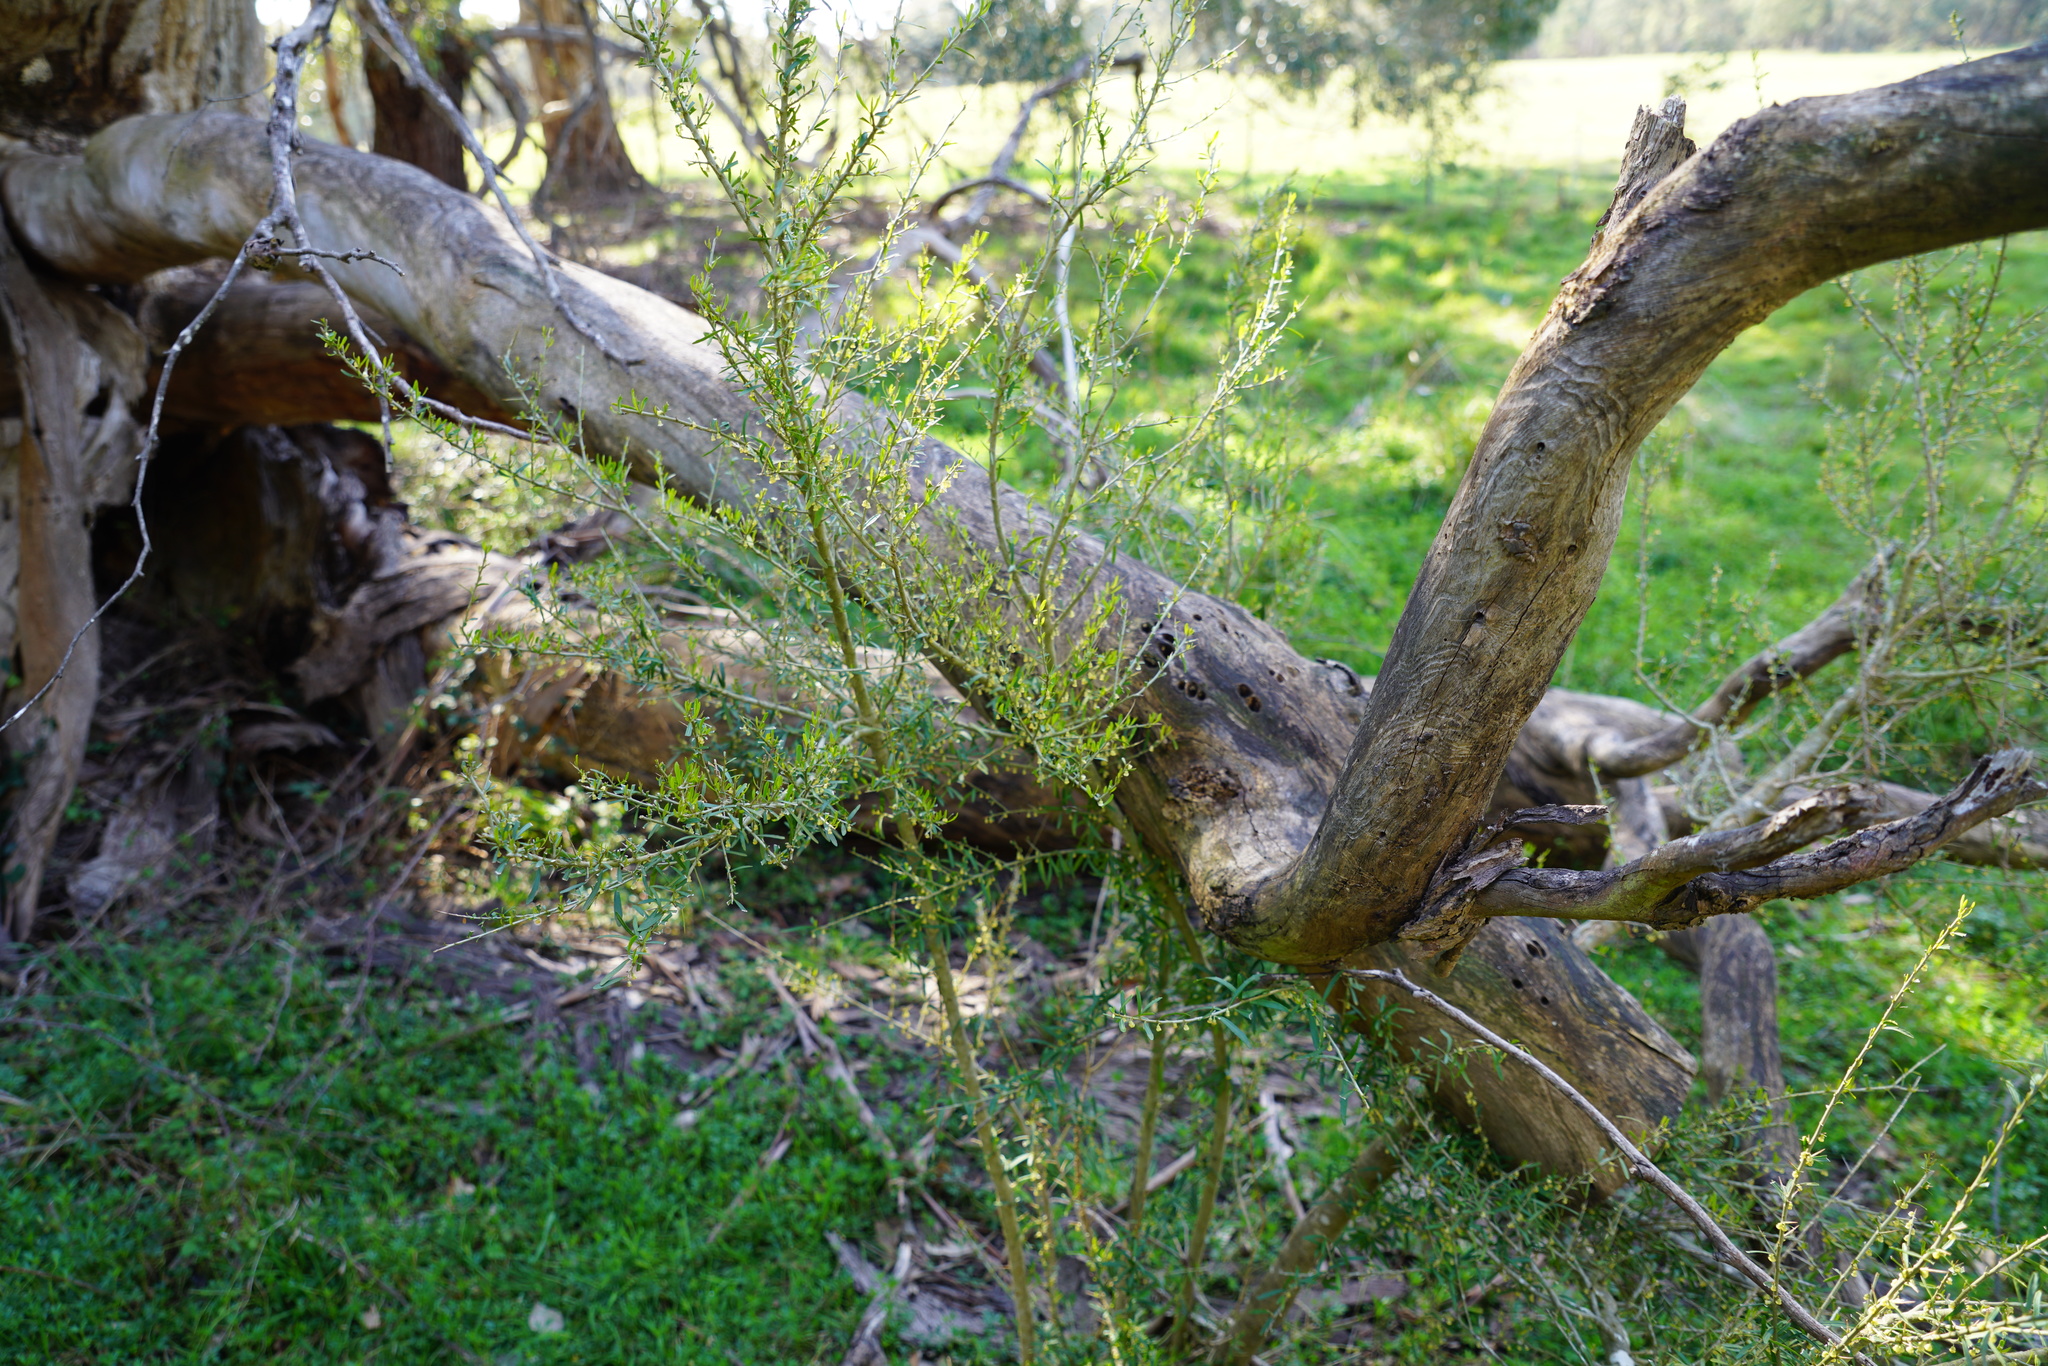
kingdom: Plantae
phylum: Tracheophyta
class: Magnoliopsida
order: Malpighiales
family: Violaceae
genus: Melicytus
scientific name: Melicytus dentatus
